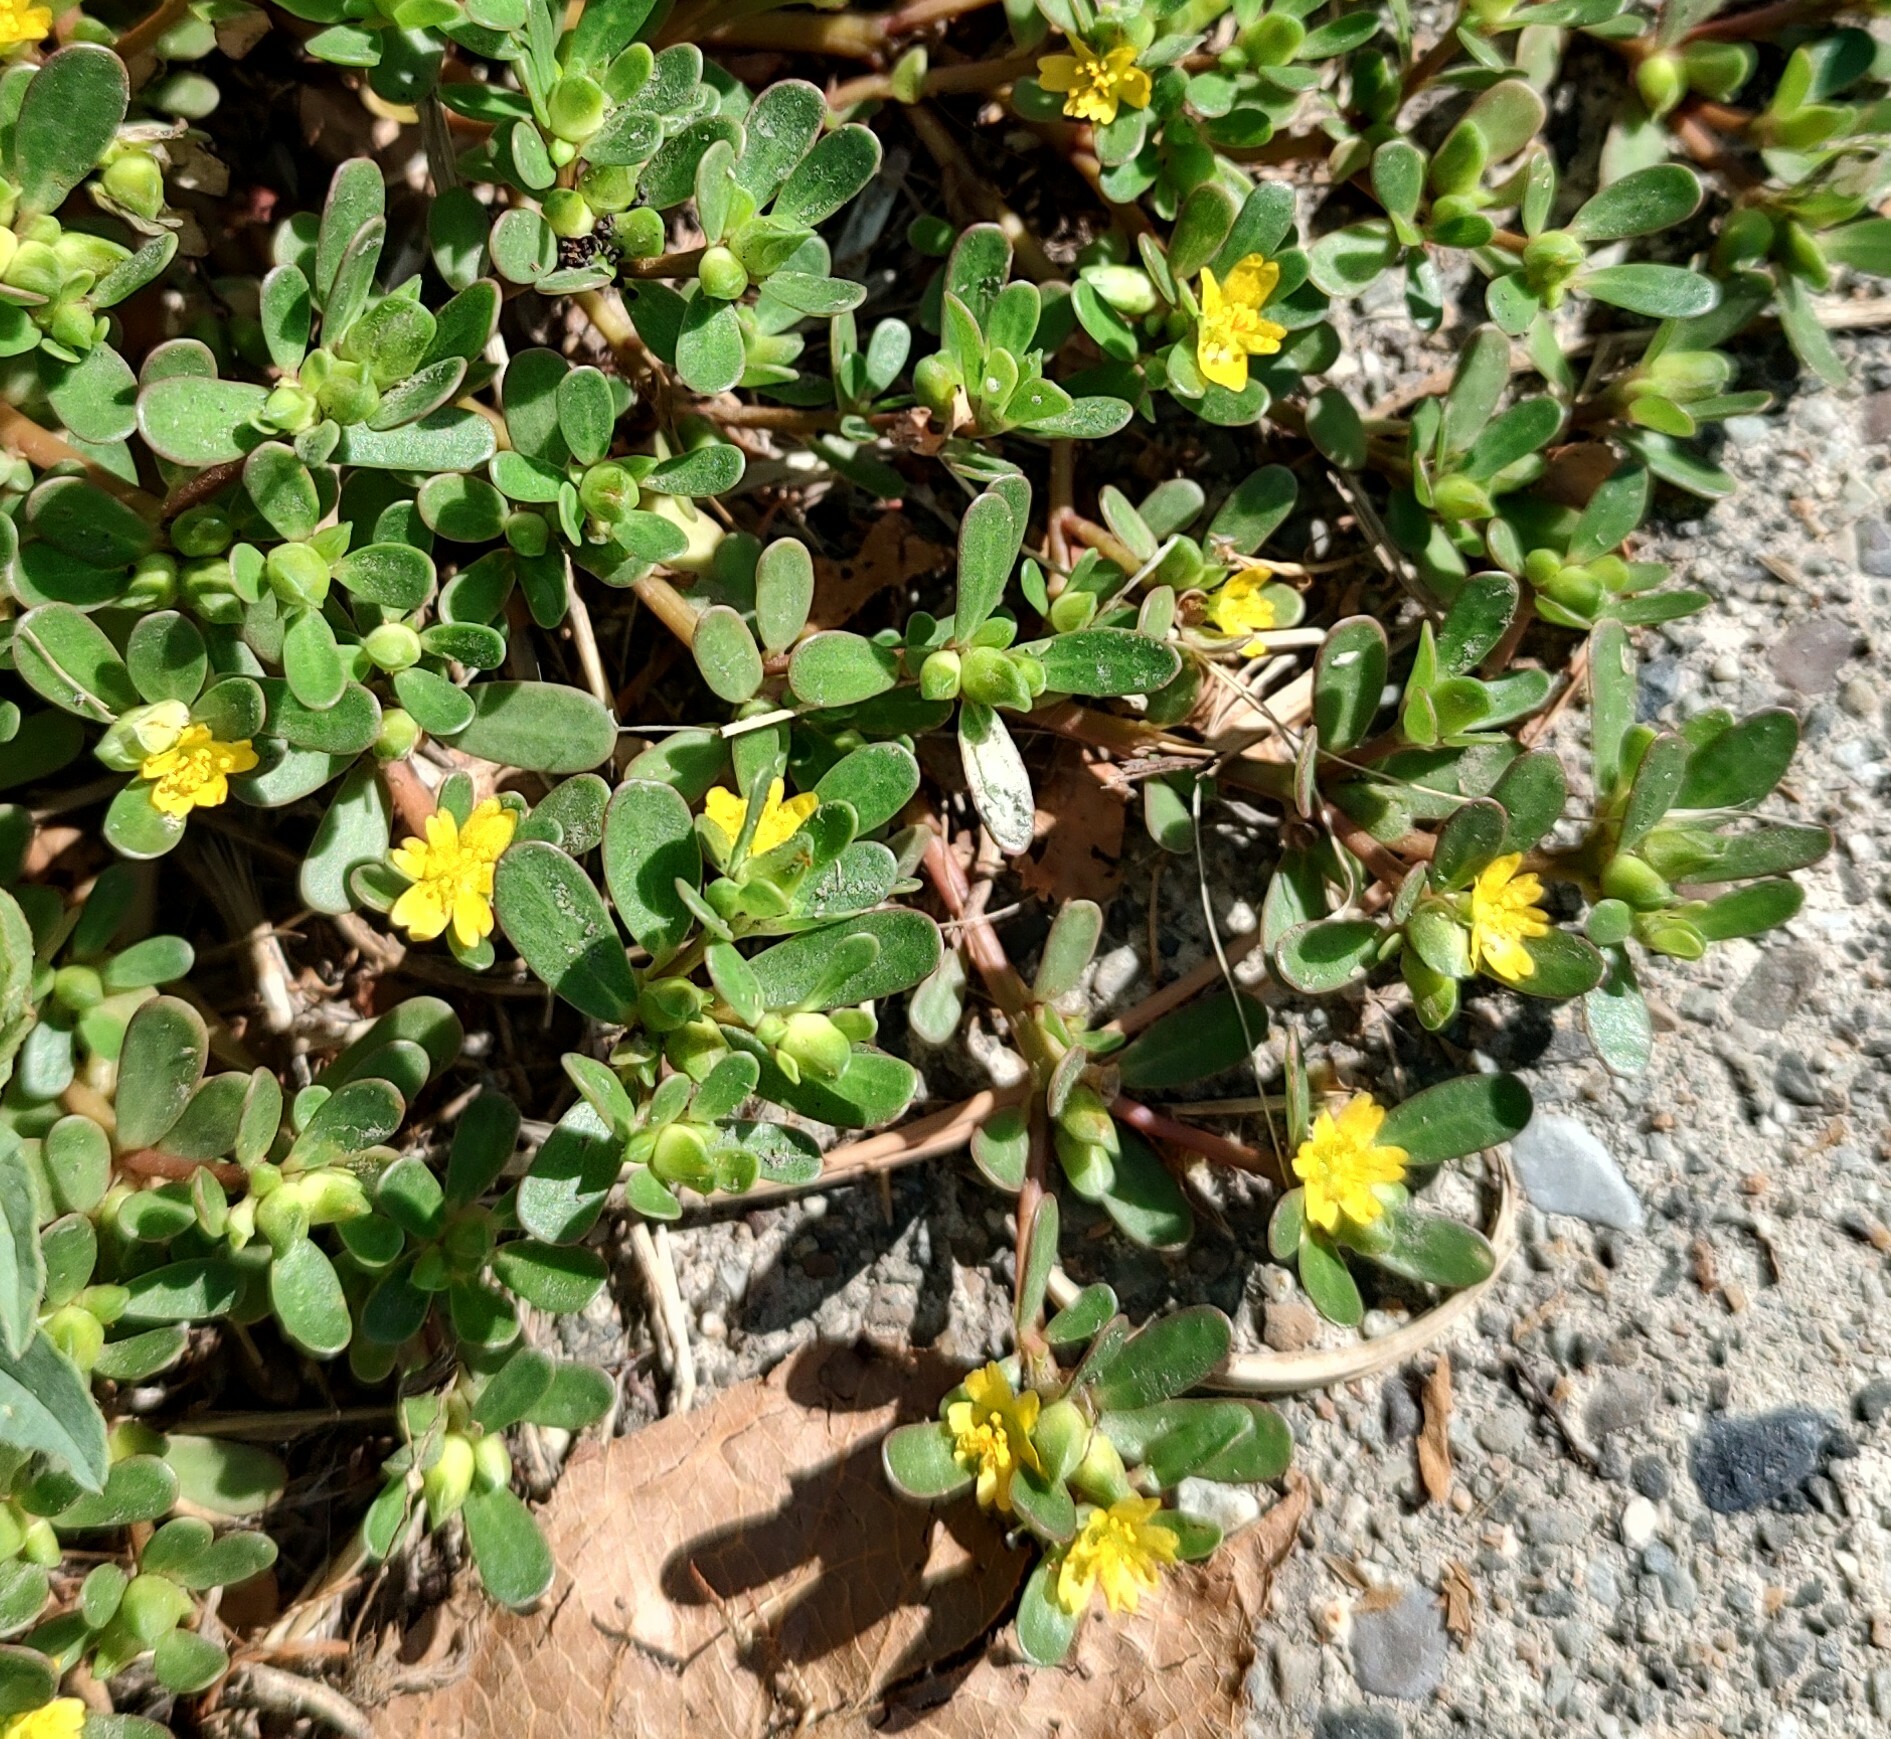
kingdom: Plantae
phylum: Tracheophyta
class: Magnoliopsida
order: Caryophyllales
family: Portulacaceae
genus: Portulaca
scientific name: Portulaca oleracea
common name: Common purslane
